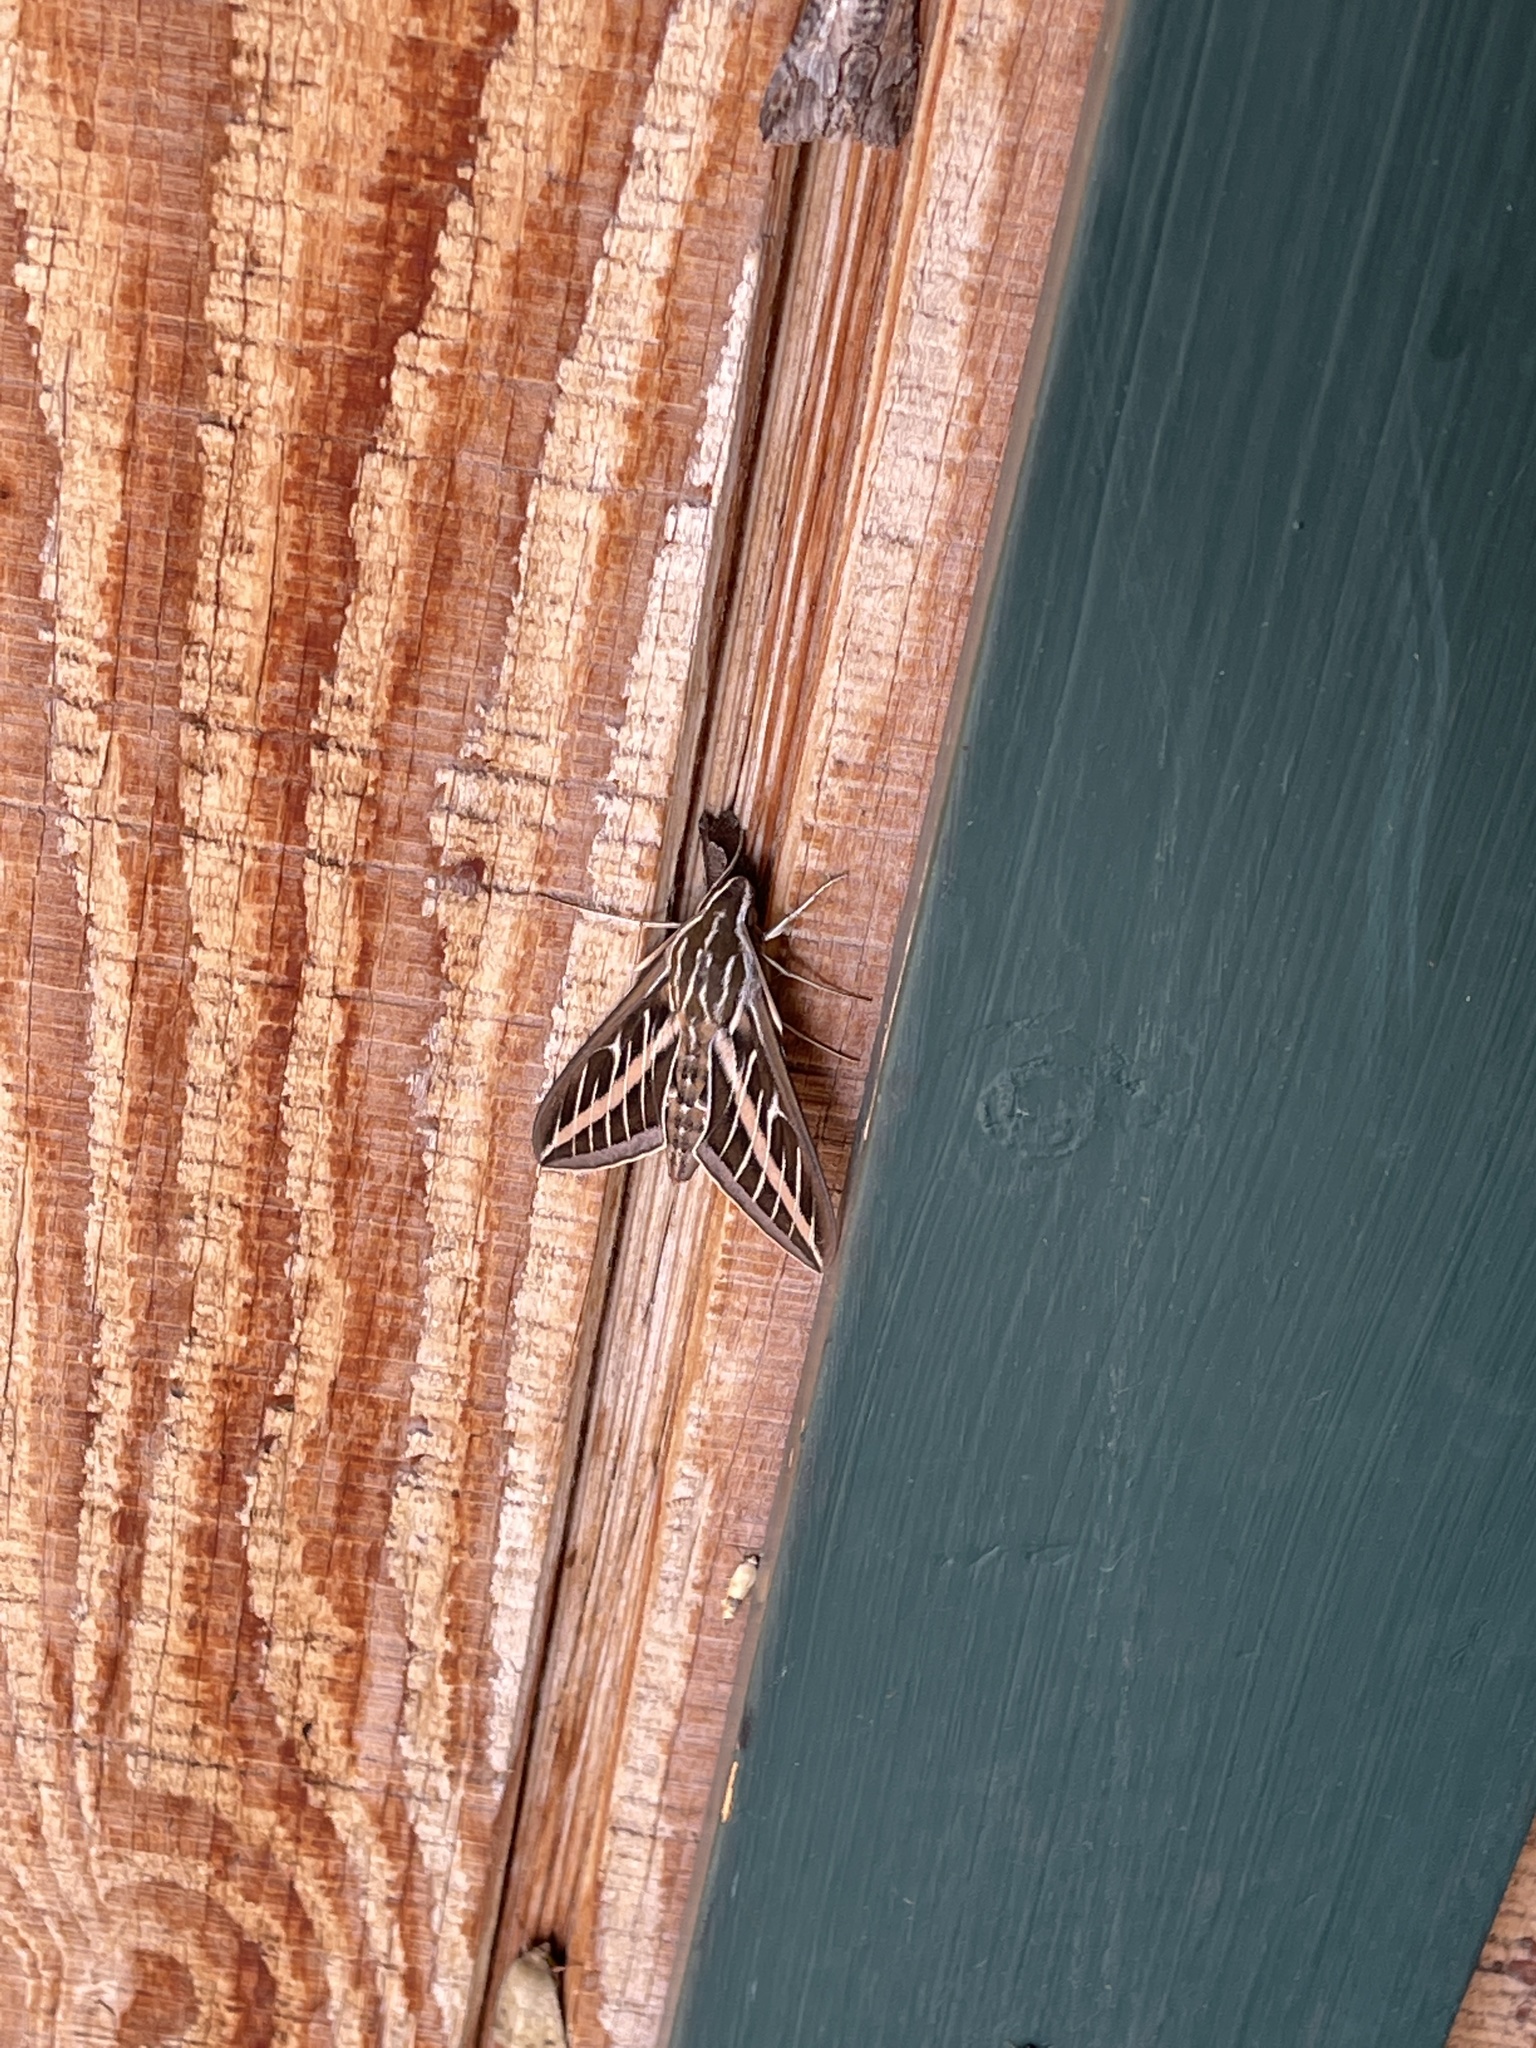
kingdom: Animalia
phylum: Arthropoda
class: Insecta
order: Lepidoptera
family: Sphingidae
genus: Hyles
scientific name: Hyles lineata
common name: White-lined sphinx
